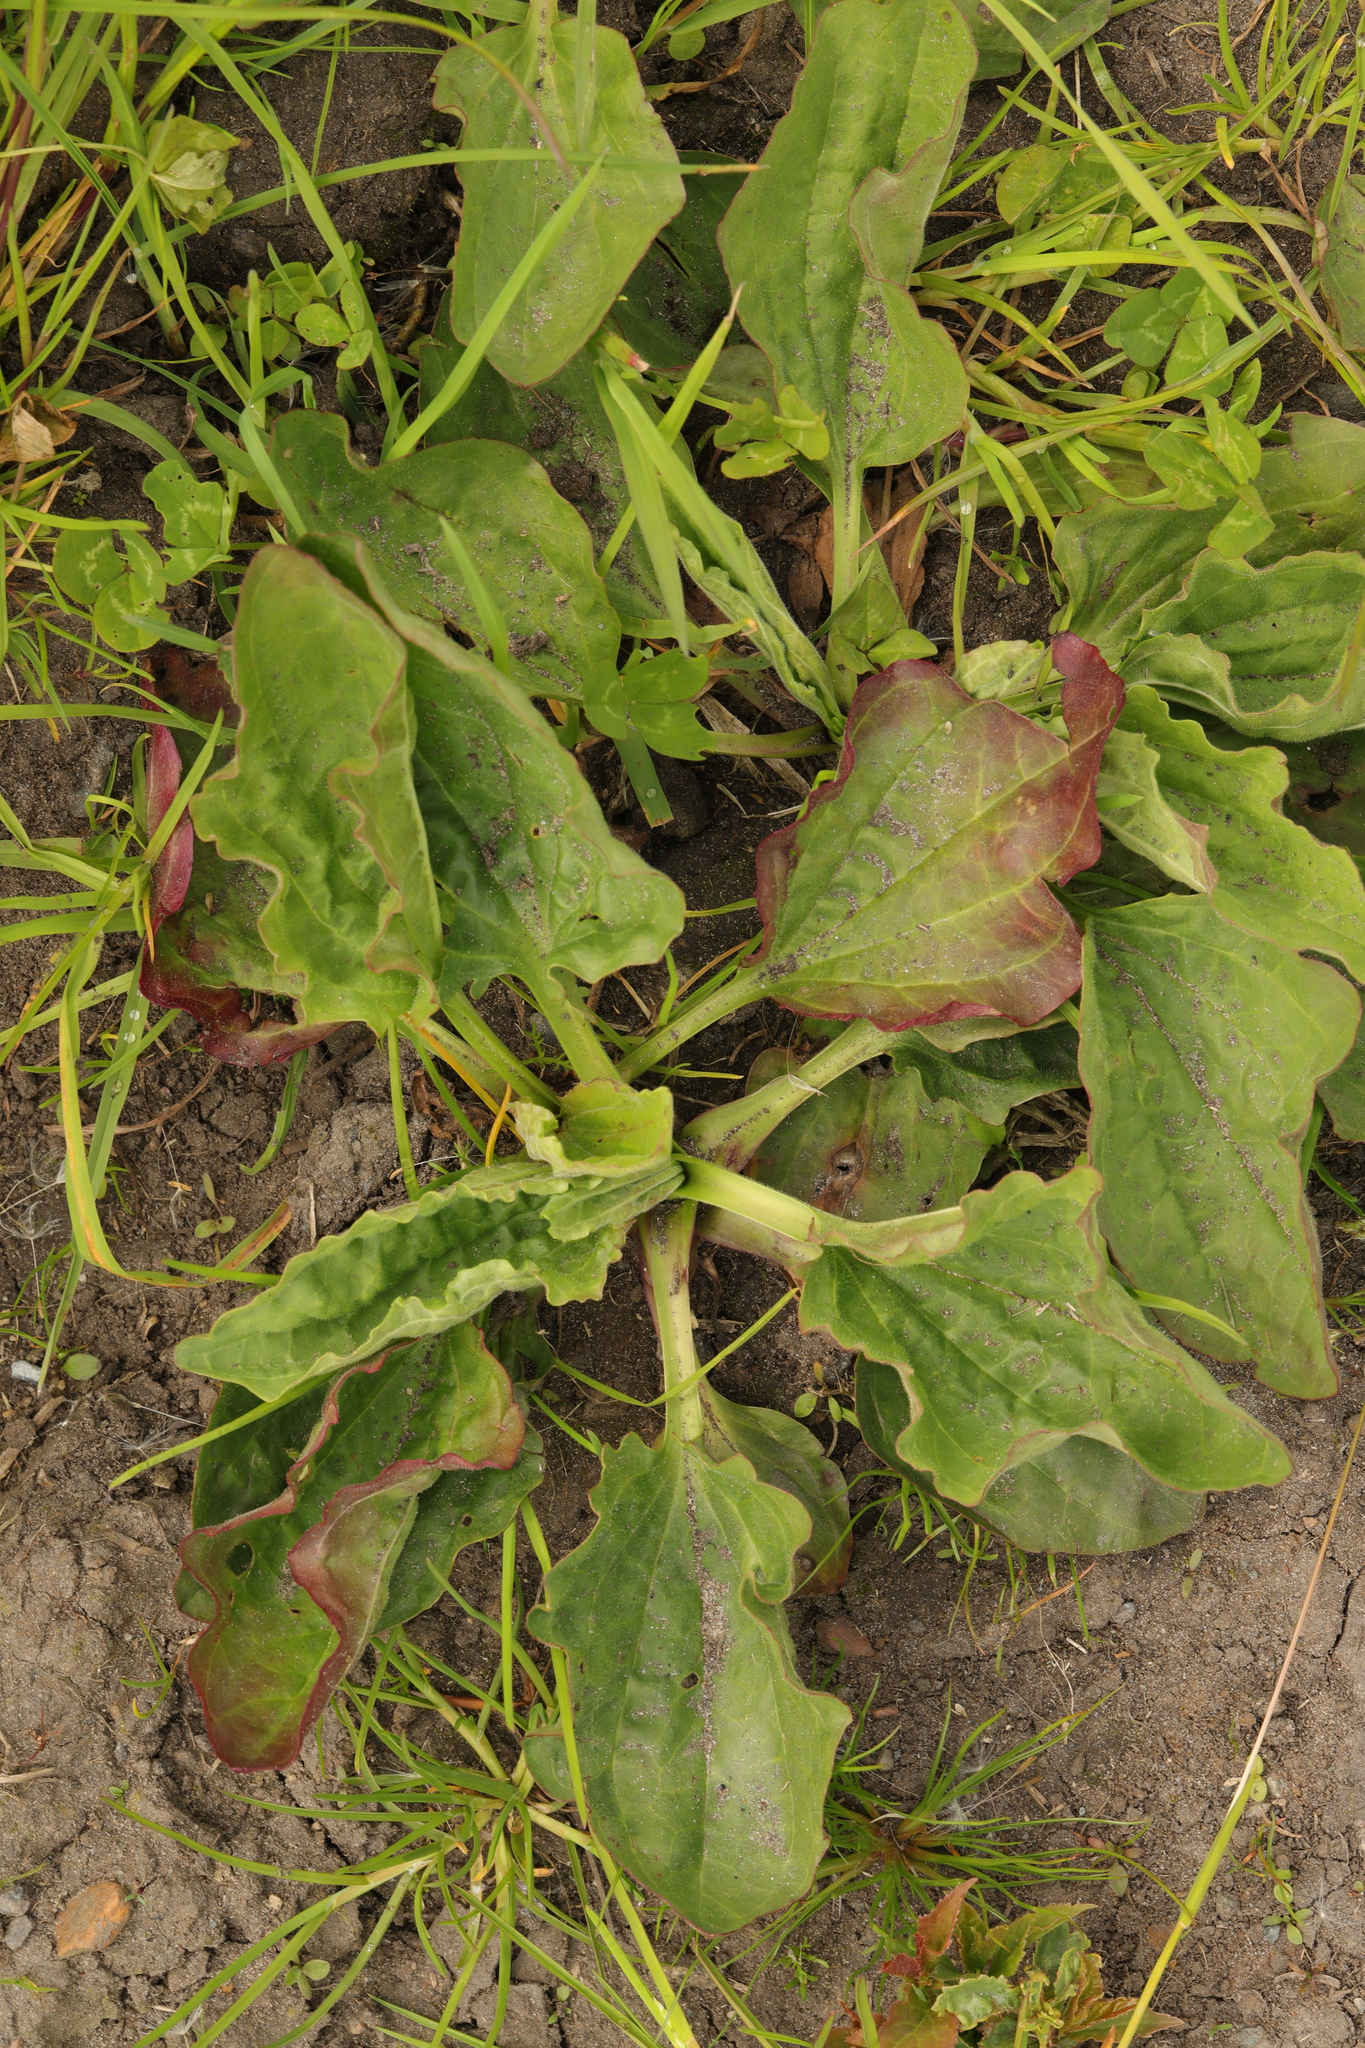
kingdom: Plantae
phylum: Tracheophyta
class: Magnoliopsida
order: Lamiales
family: Plantaginaceae
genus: Plantago
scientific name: Plantago major
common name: Common plantain
